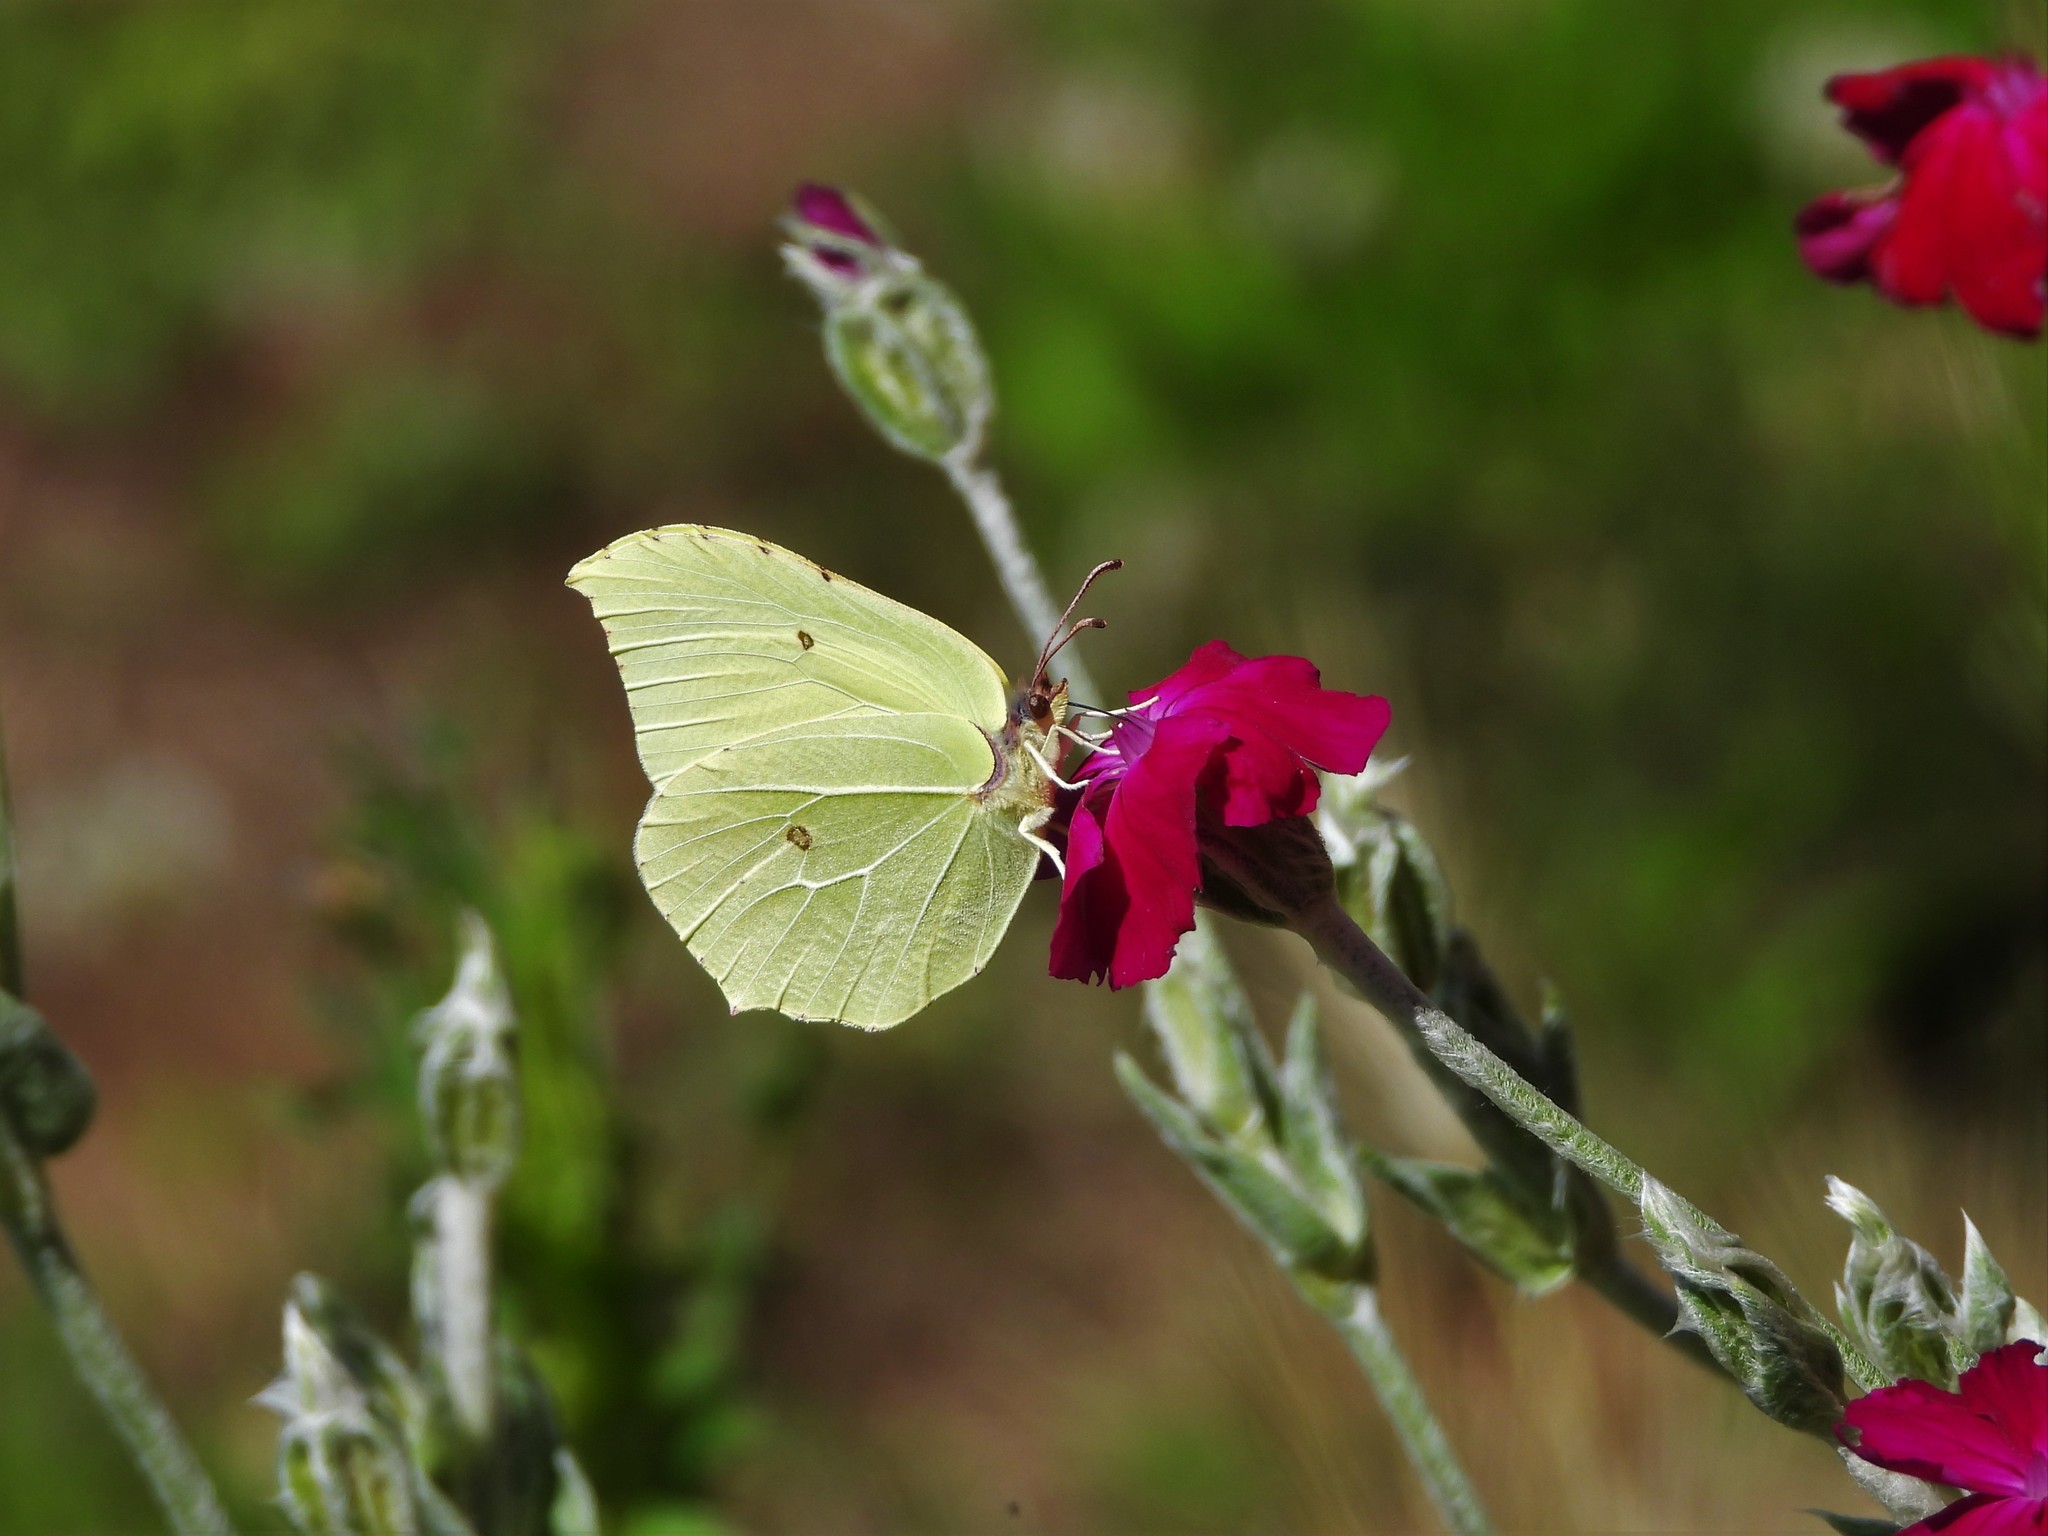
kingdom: Animalia
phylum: Arthropoda
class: Insecta
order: Lepidoptera
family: Pieridae
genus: Gonepteryx
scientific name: Gonepteryx rhamni
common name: Brimstone
